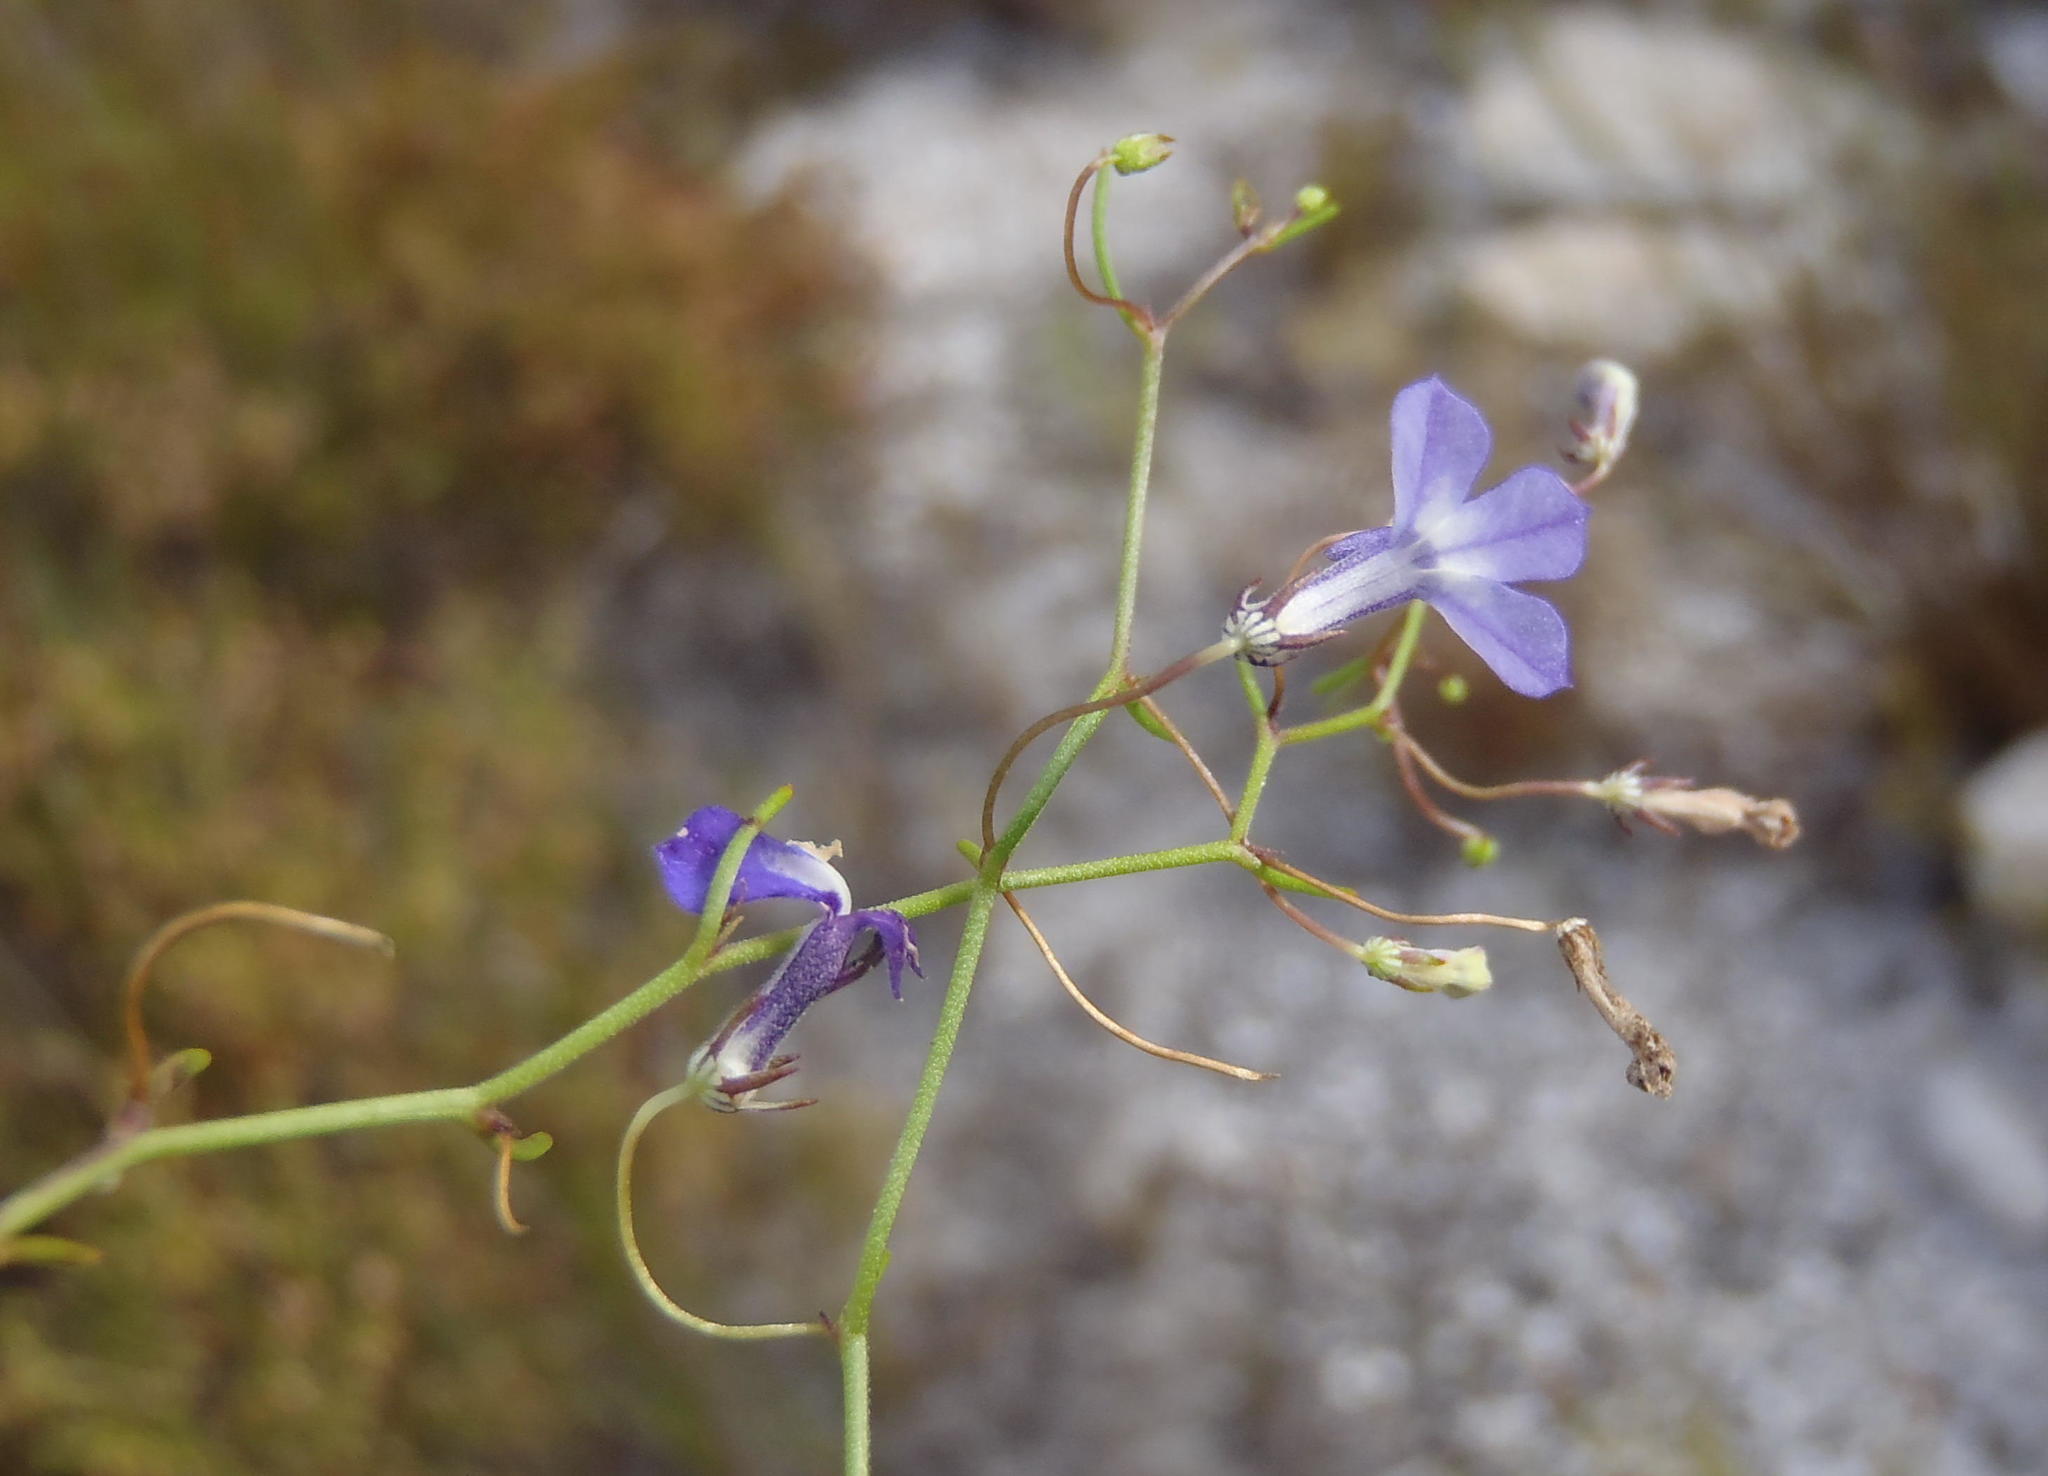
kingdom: Plantae
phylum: Tracheophyta
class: Magnoliopsida
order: Asterales
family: Campanulaceae
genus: Lobelia
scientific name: Lobelia setacea
